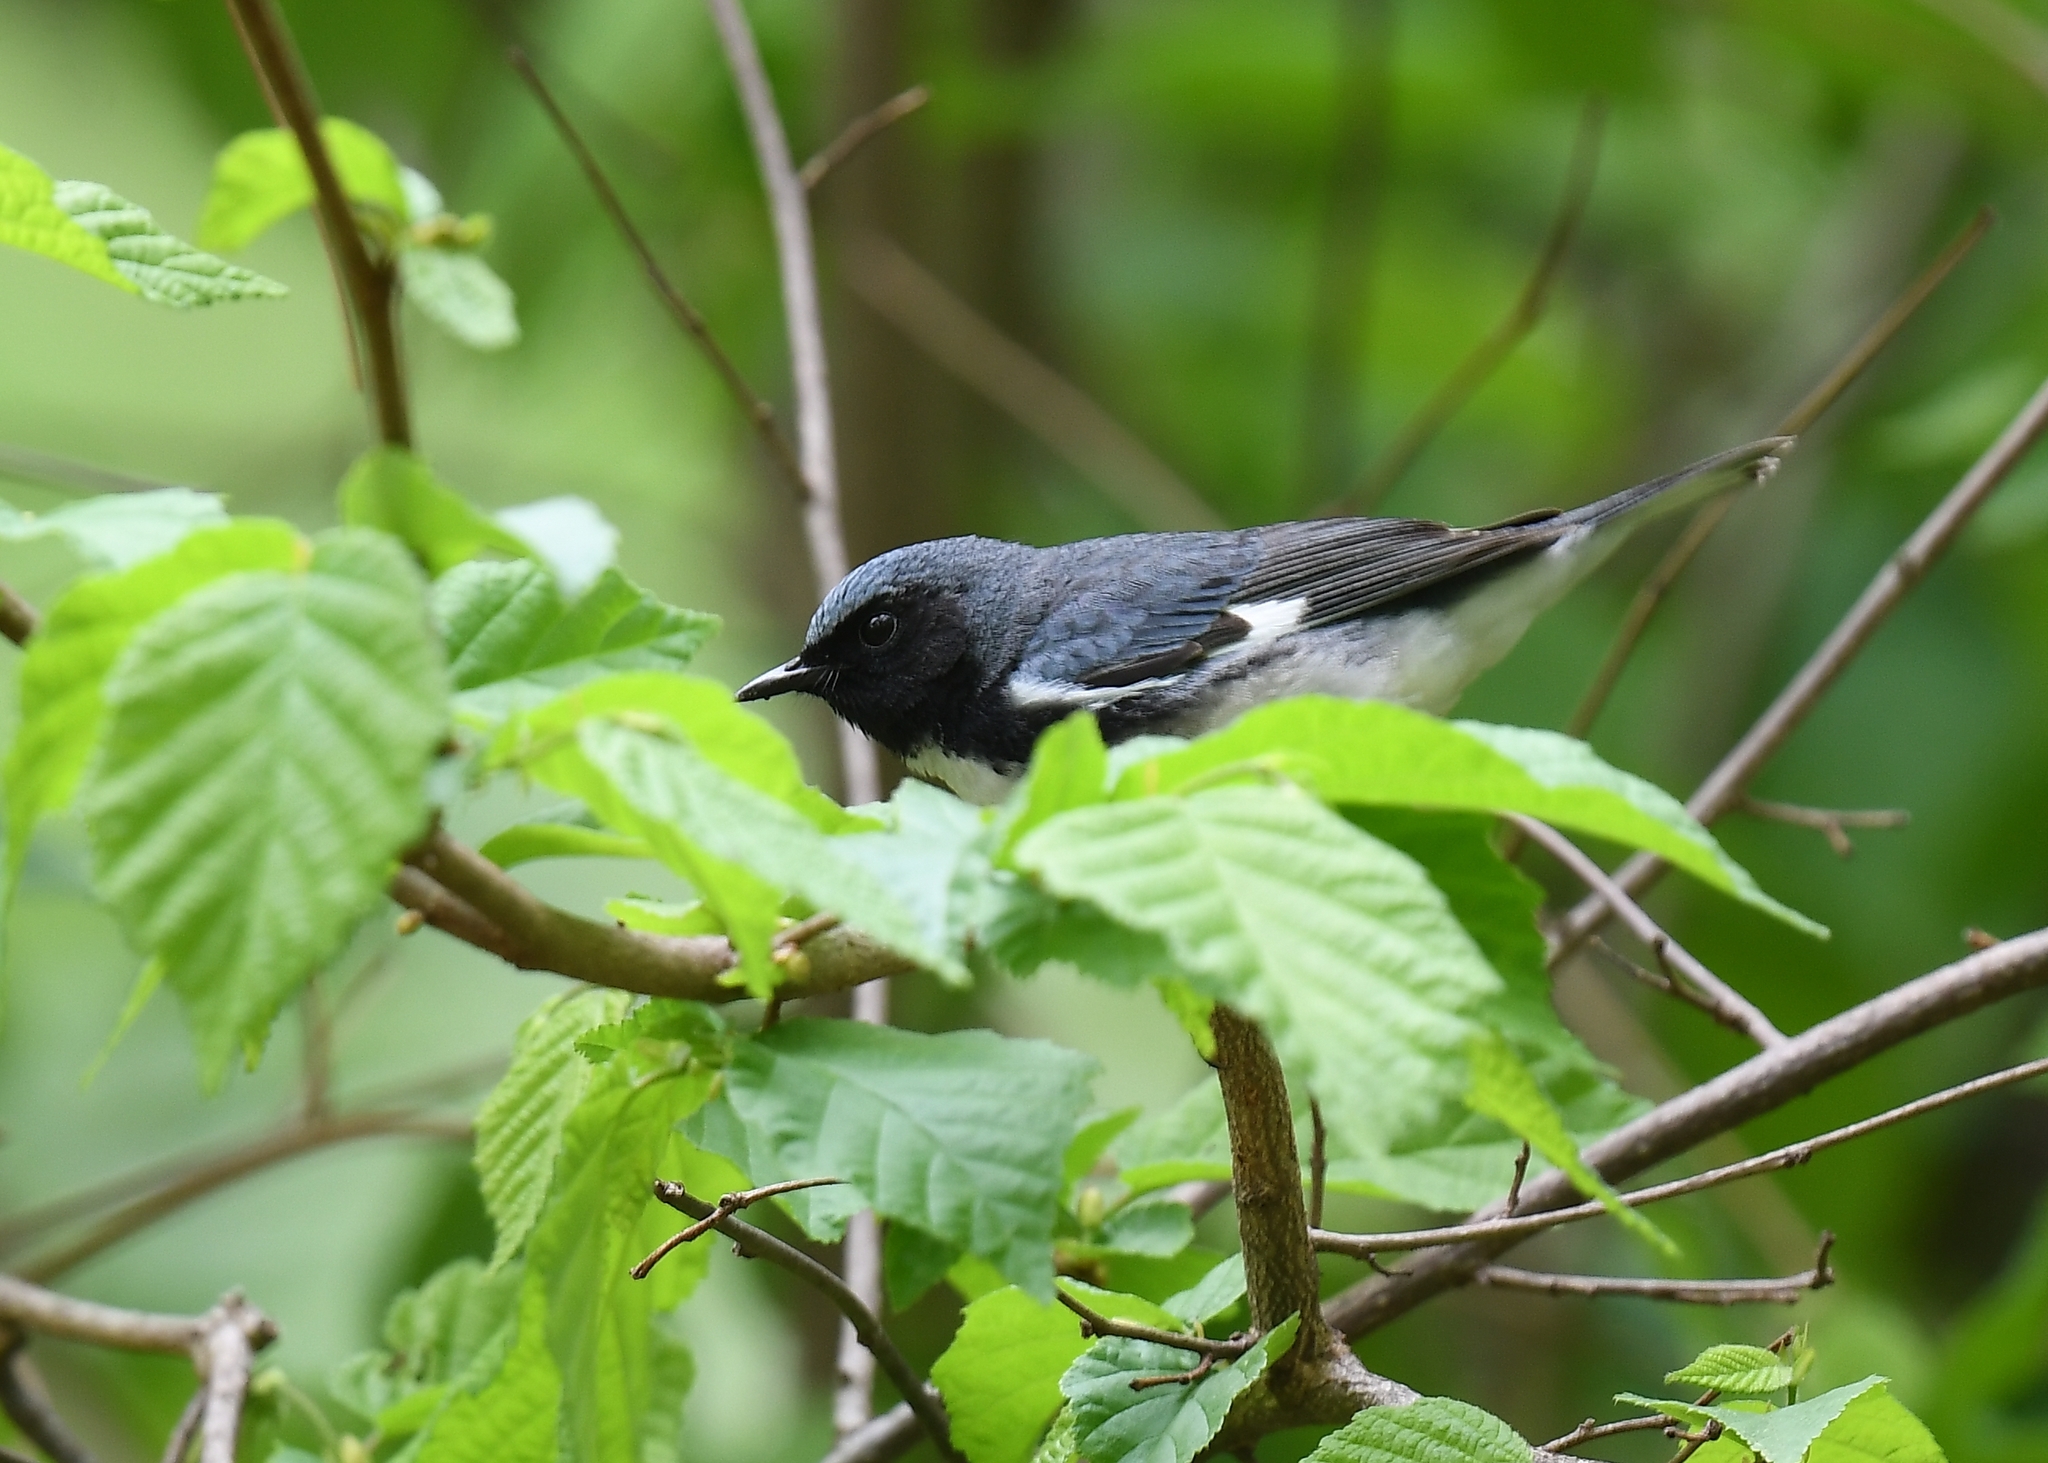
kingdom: Animalia
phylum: Chordata
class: Aves
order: Passeriformes
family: Parulidae
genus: Setophaga
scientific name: Setophaga caerulescens
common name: Black-throated blue warbler
